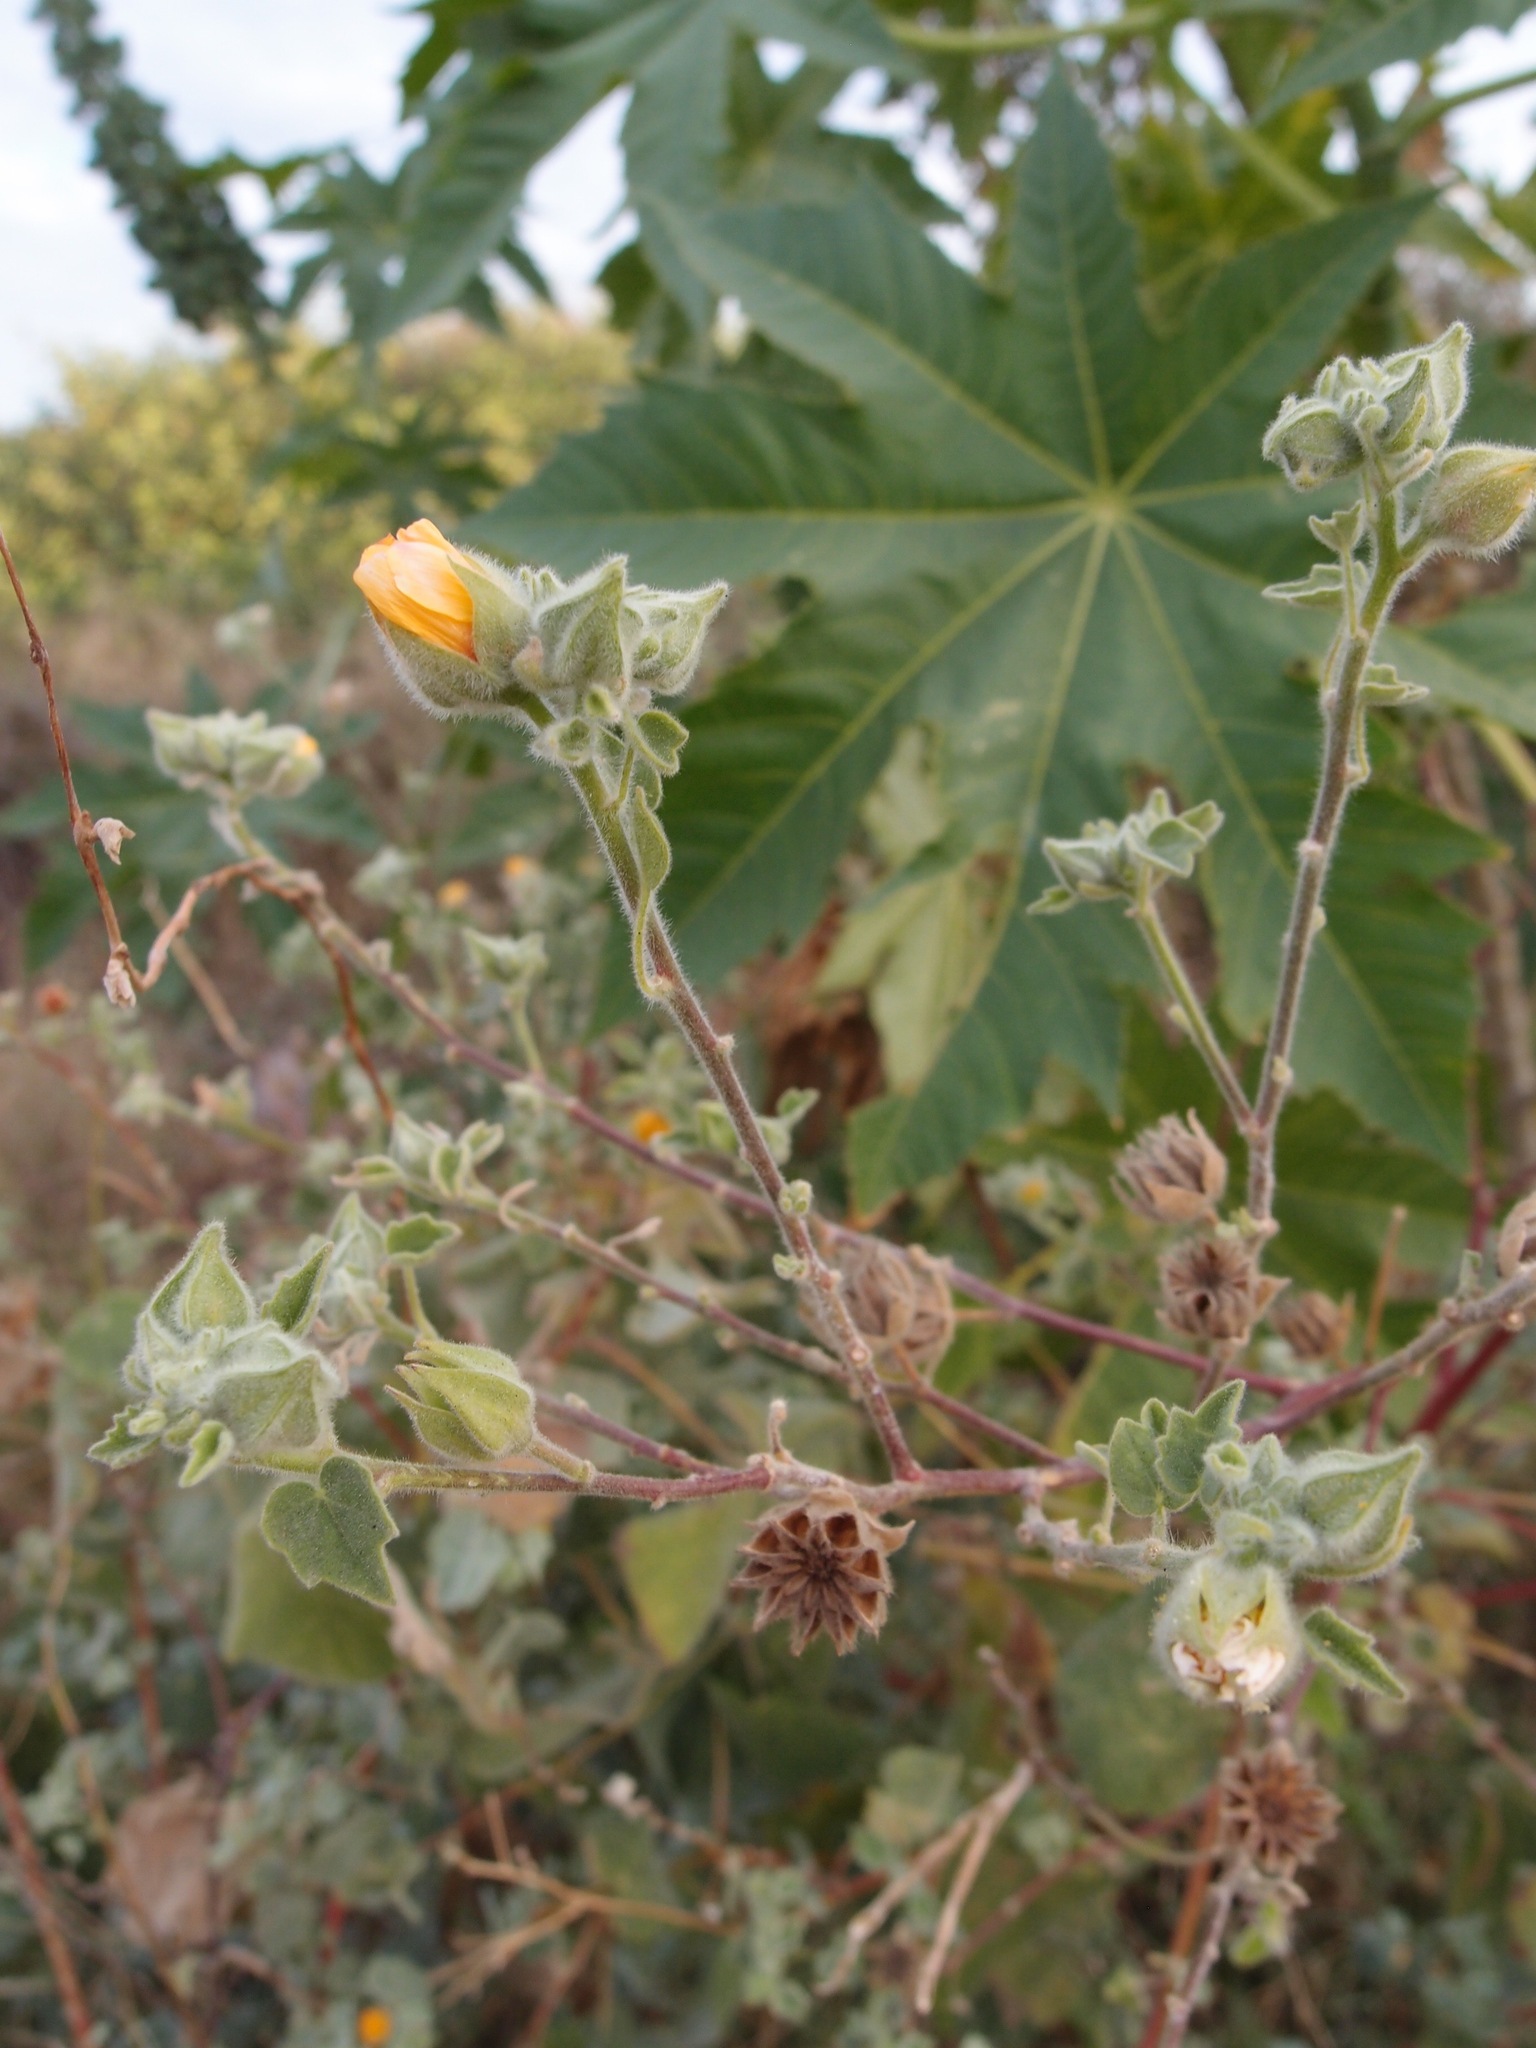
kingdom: Plantae
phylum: Tracheophyta
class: Magnoliopsida
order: Malvales
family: Malvaceae
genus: Abutilon
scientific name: Abutilon palmeri
